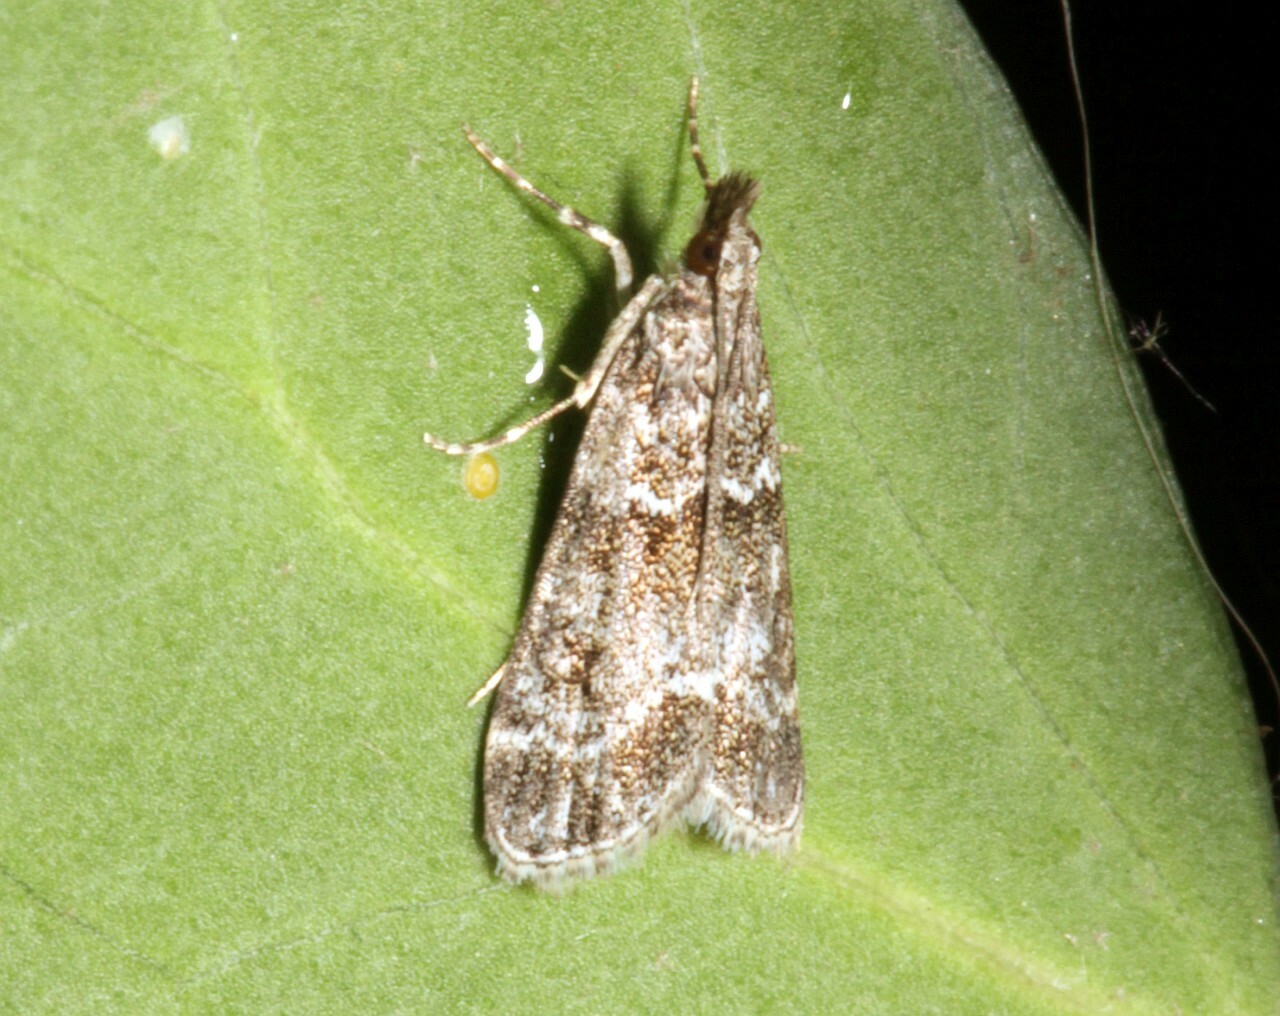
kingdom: Animalia
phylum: Arthropoda
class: Insecta
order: Lepidoptera
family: Crambidae
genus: Eudonia
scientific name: Eudonia mercurella
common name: Small grey
